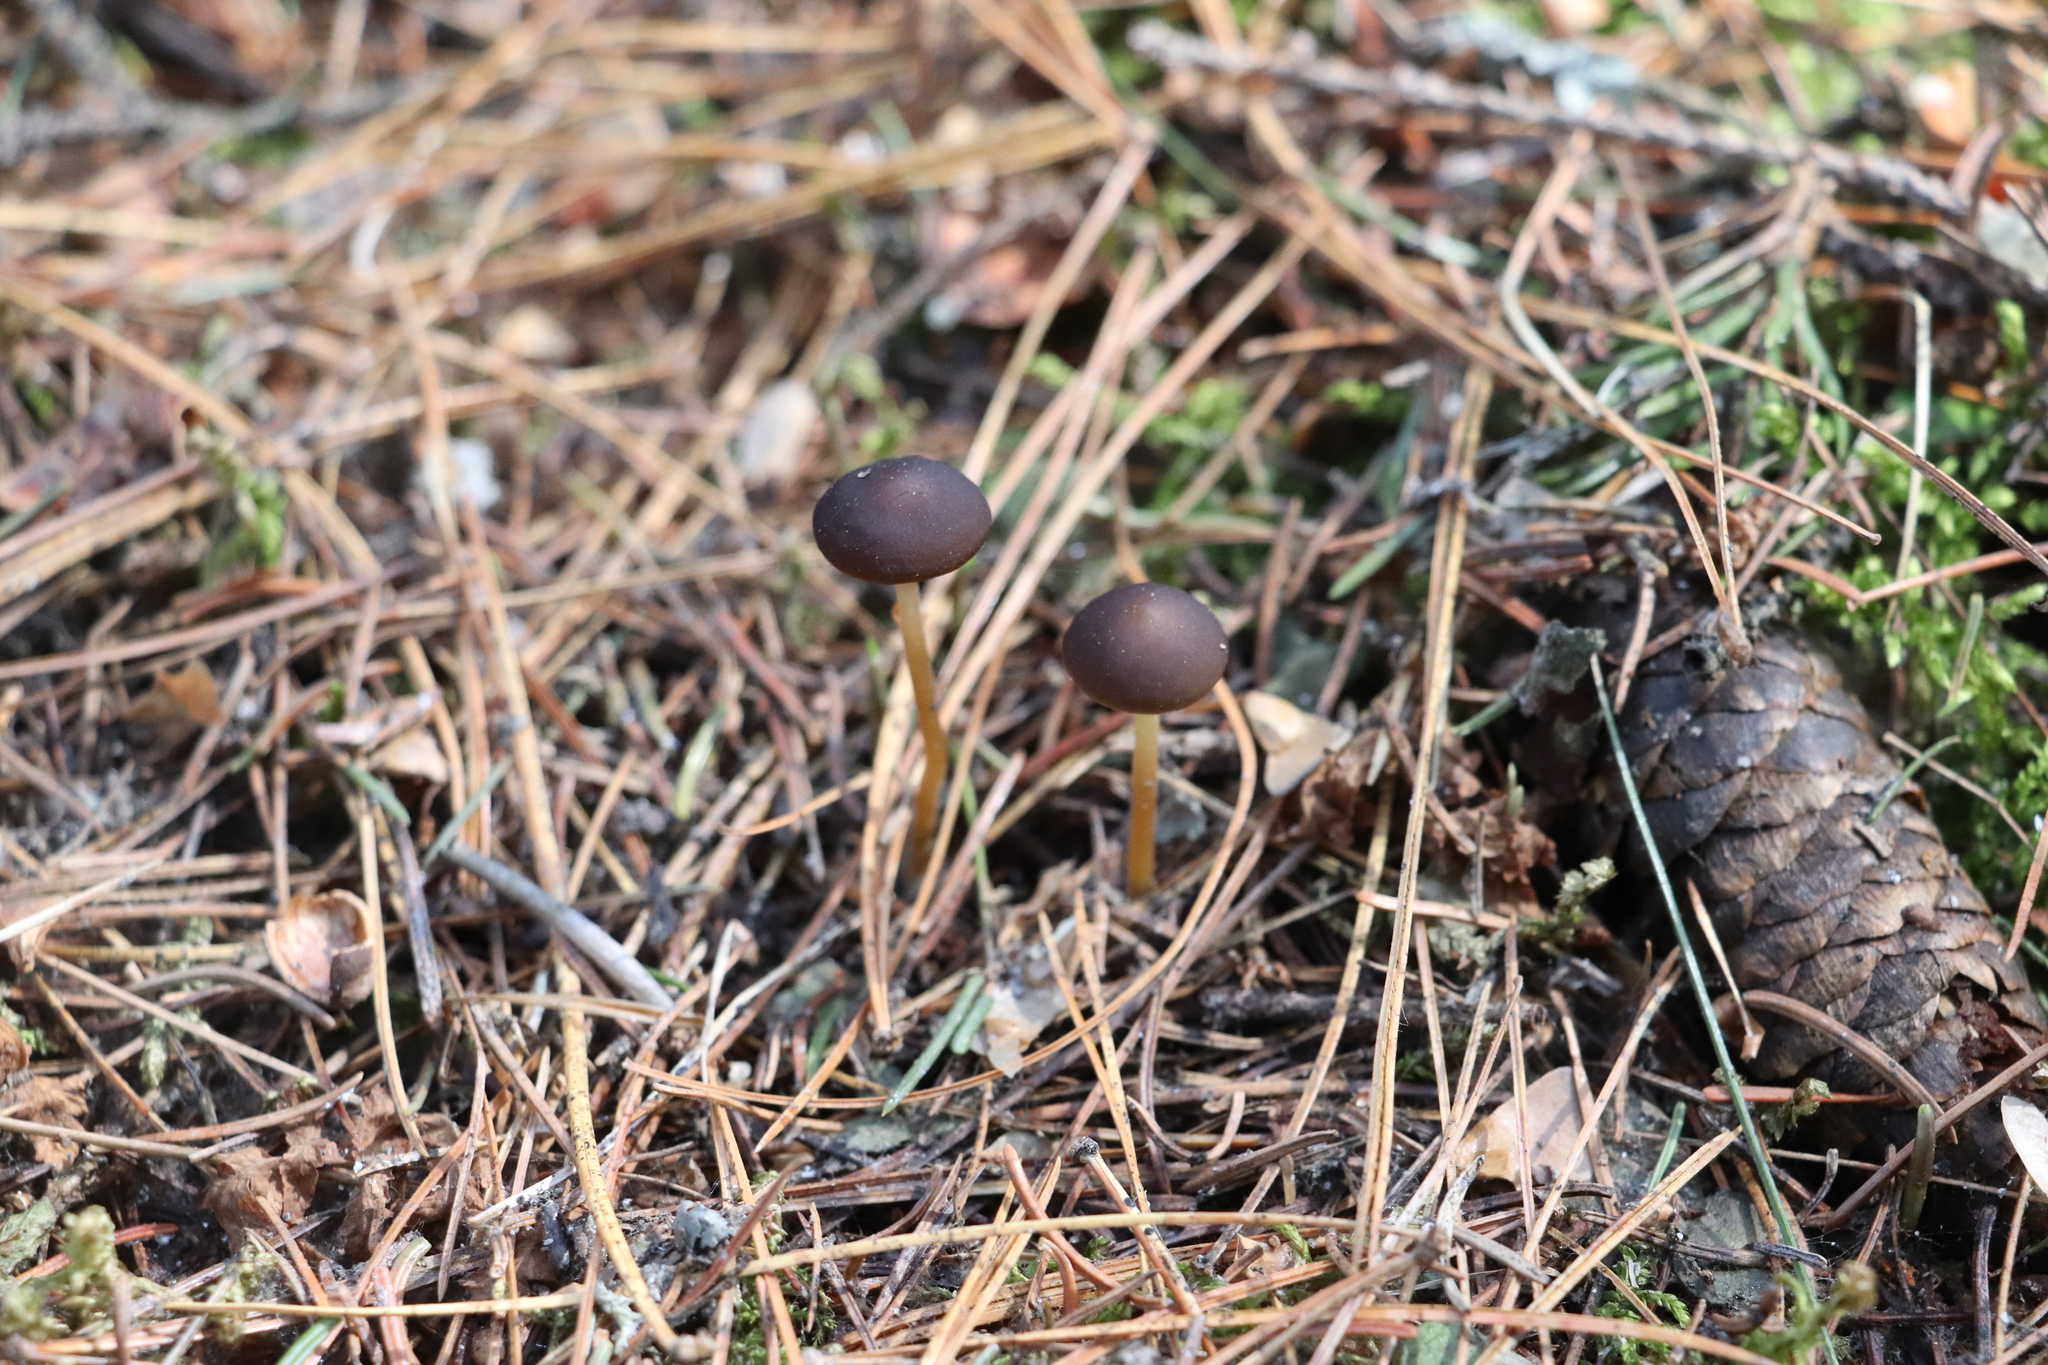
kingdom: Fungi
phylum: Basidiomycota
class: Agaricomycetes
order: Agaricales
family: Physalacriaceae
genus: Strobilurus
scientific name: Strobilurus esculentus
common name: Sprucecone cap
